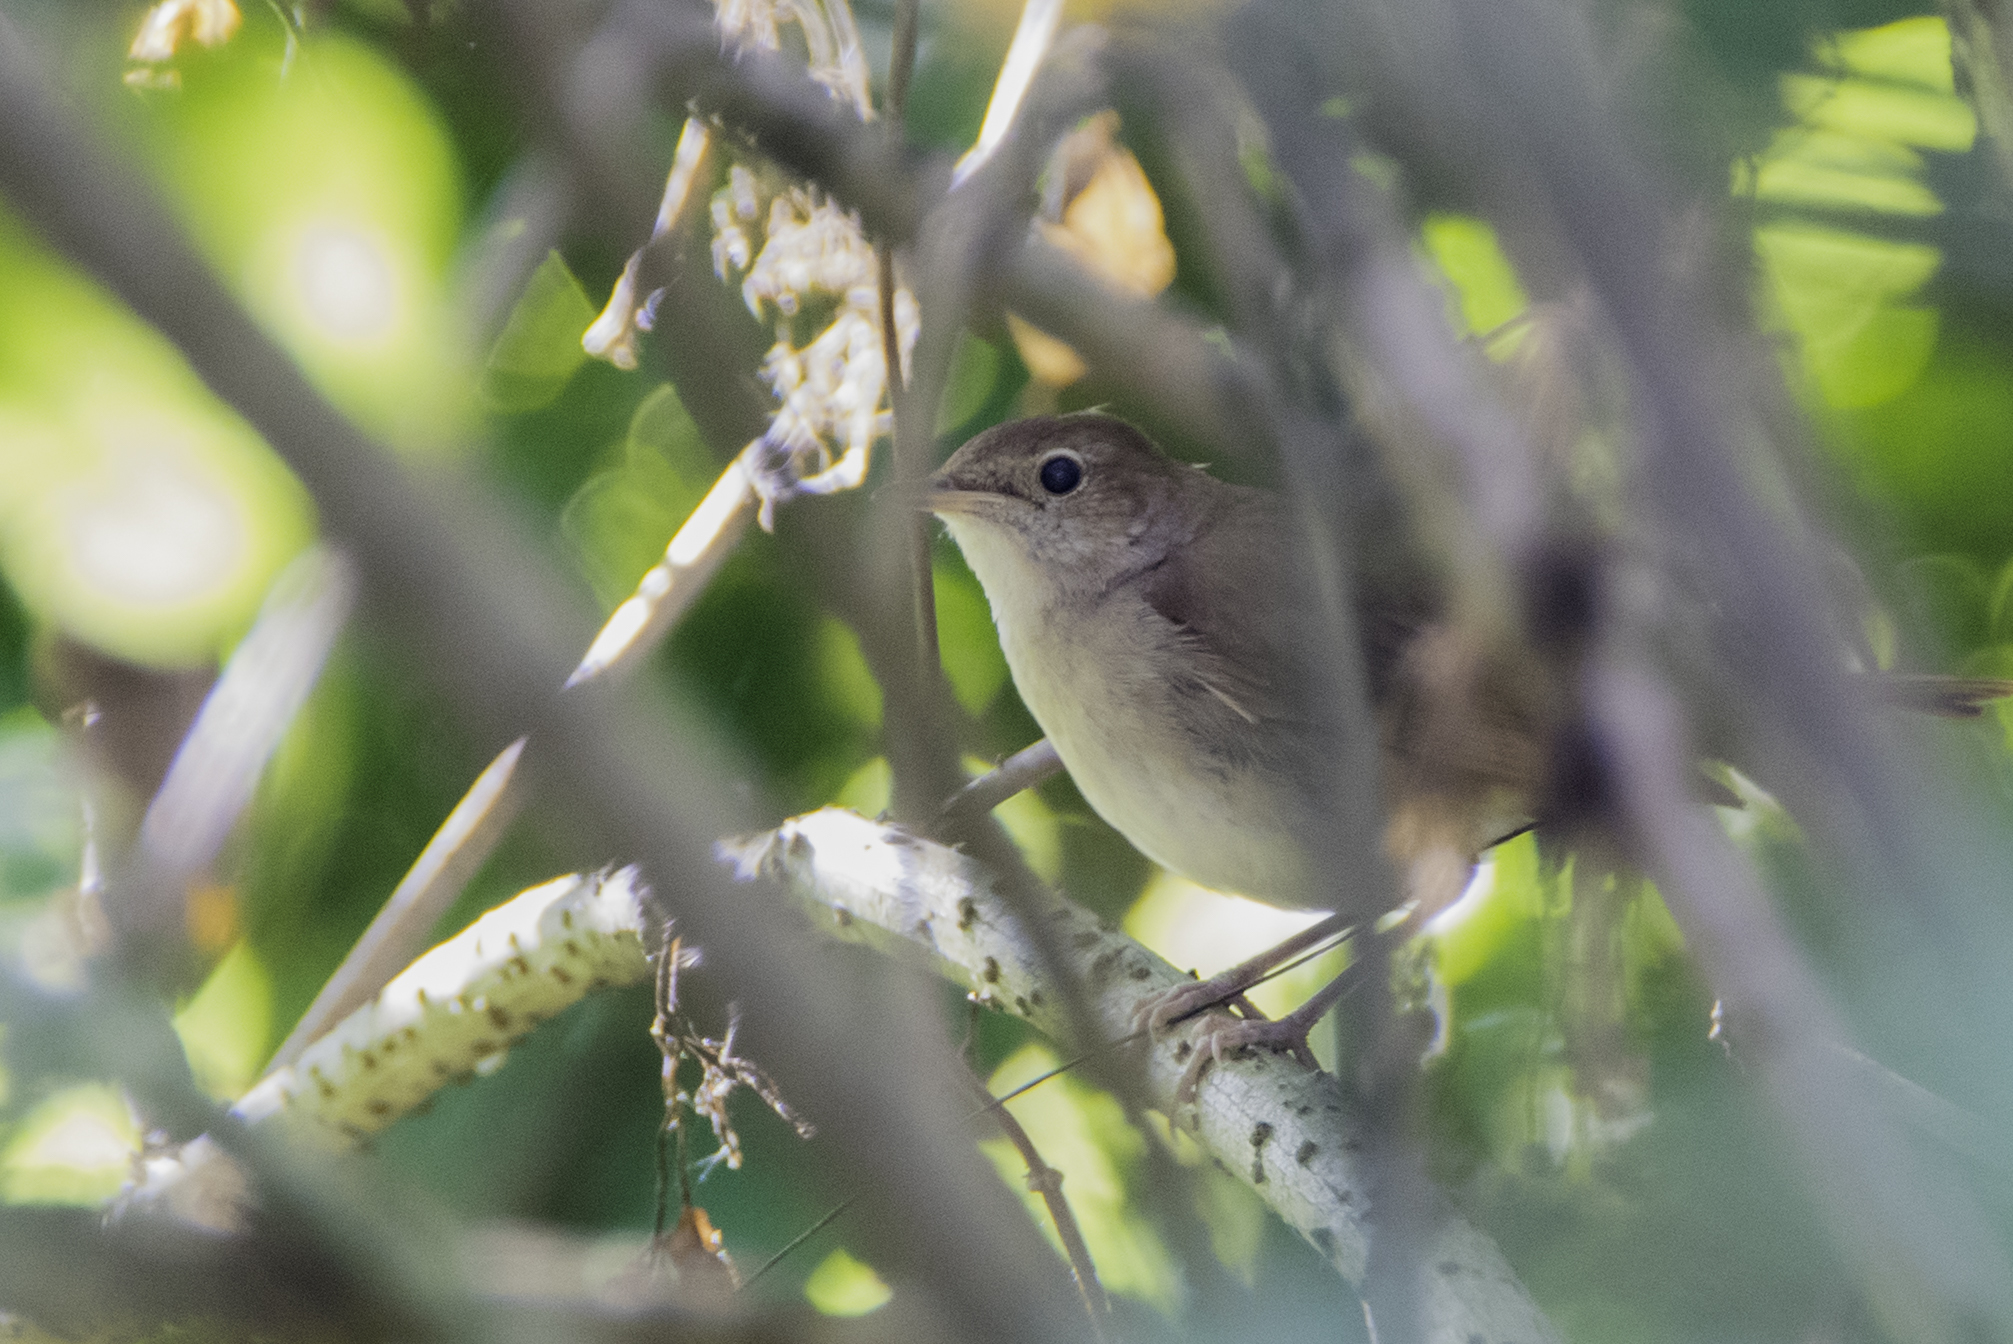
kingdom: Animalia
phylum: Chordata
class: Aves
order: Passeriformes
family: Muscicapidae
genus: Luscinia
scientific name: Luscinia megarhynchos
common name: Common nightingale
